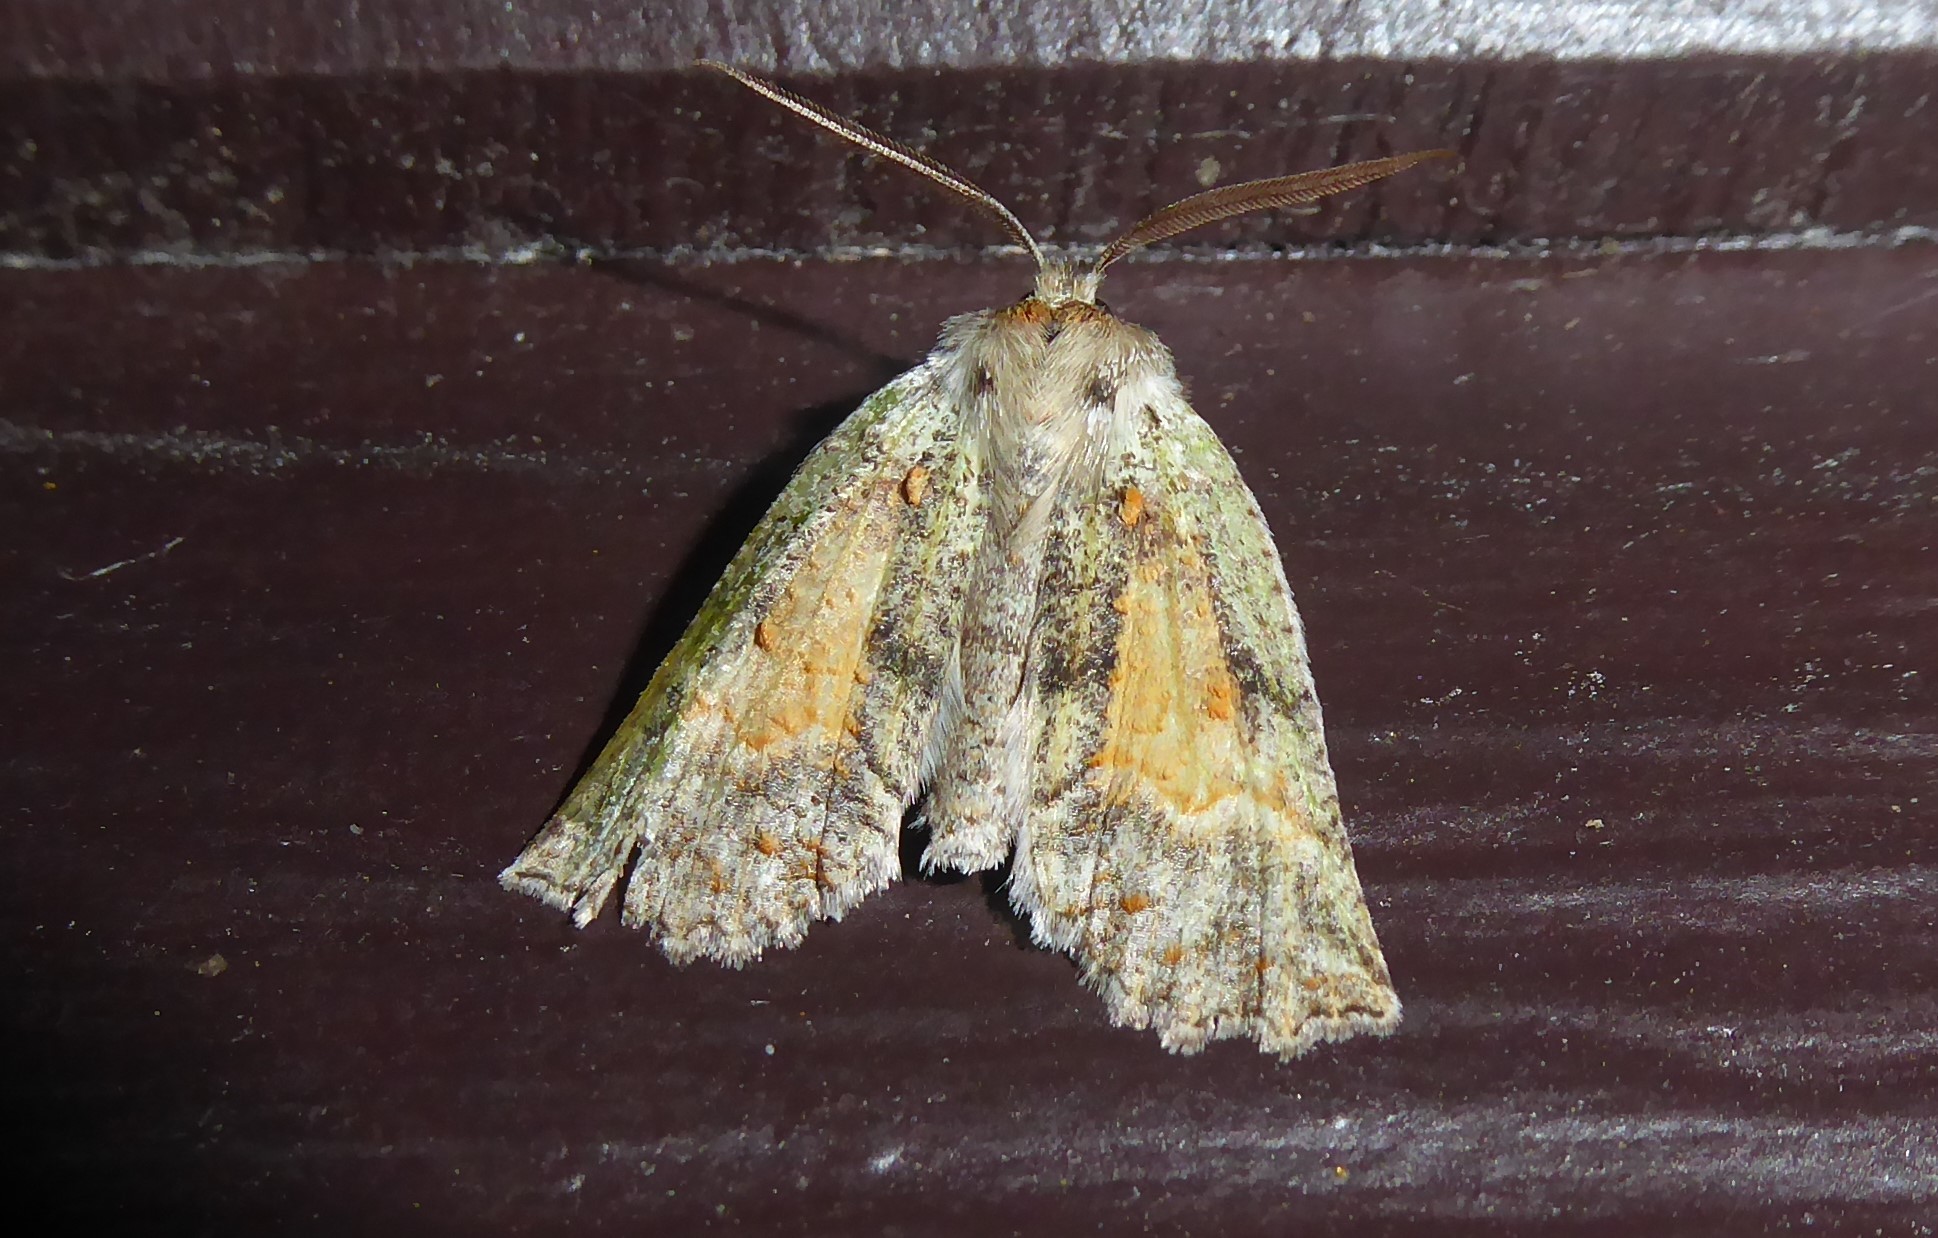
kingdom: Animalia
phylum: Arthropoda
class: Insecta
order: Lepidoptera
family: Geometridae
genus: Declana
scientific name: Declana floccosa
